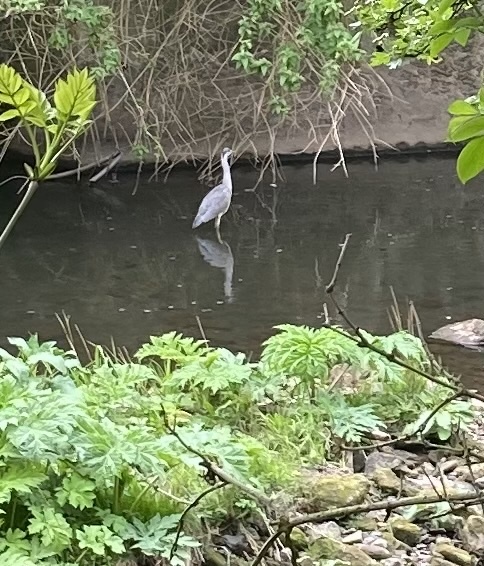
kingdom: Animalia
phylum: Chordata
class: Aves
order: Pelecaniformes
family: Ardeidae
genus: Ardea
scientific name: Ardea cinerea
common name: Grey heron
